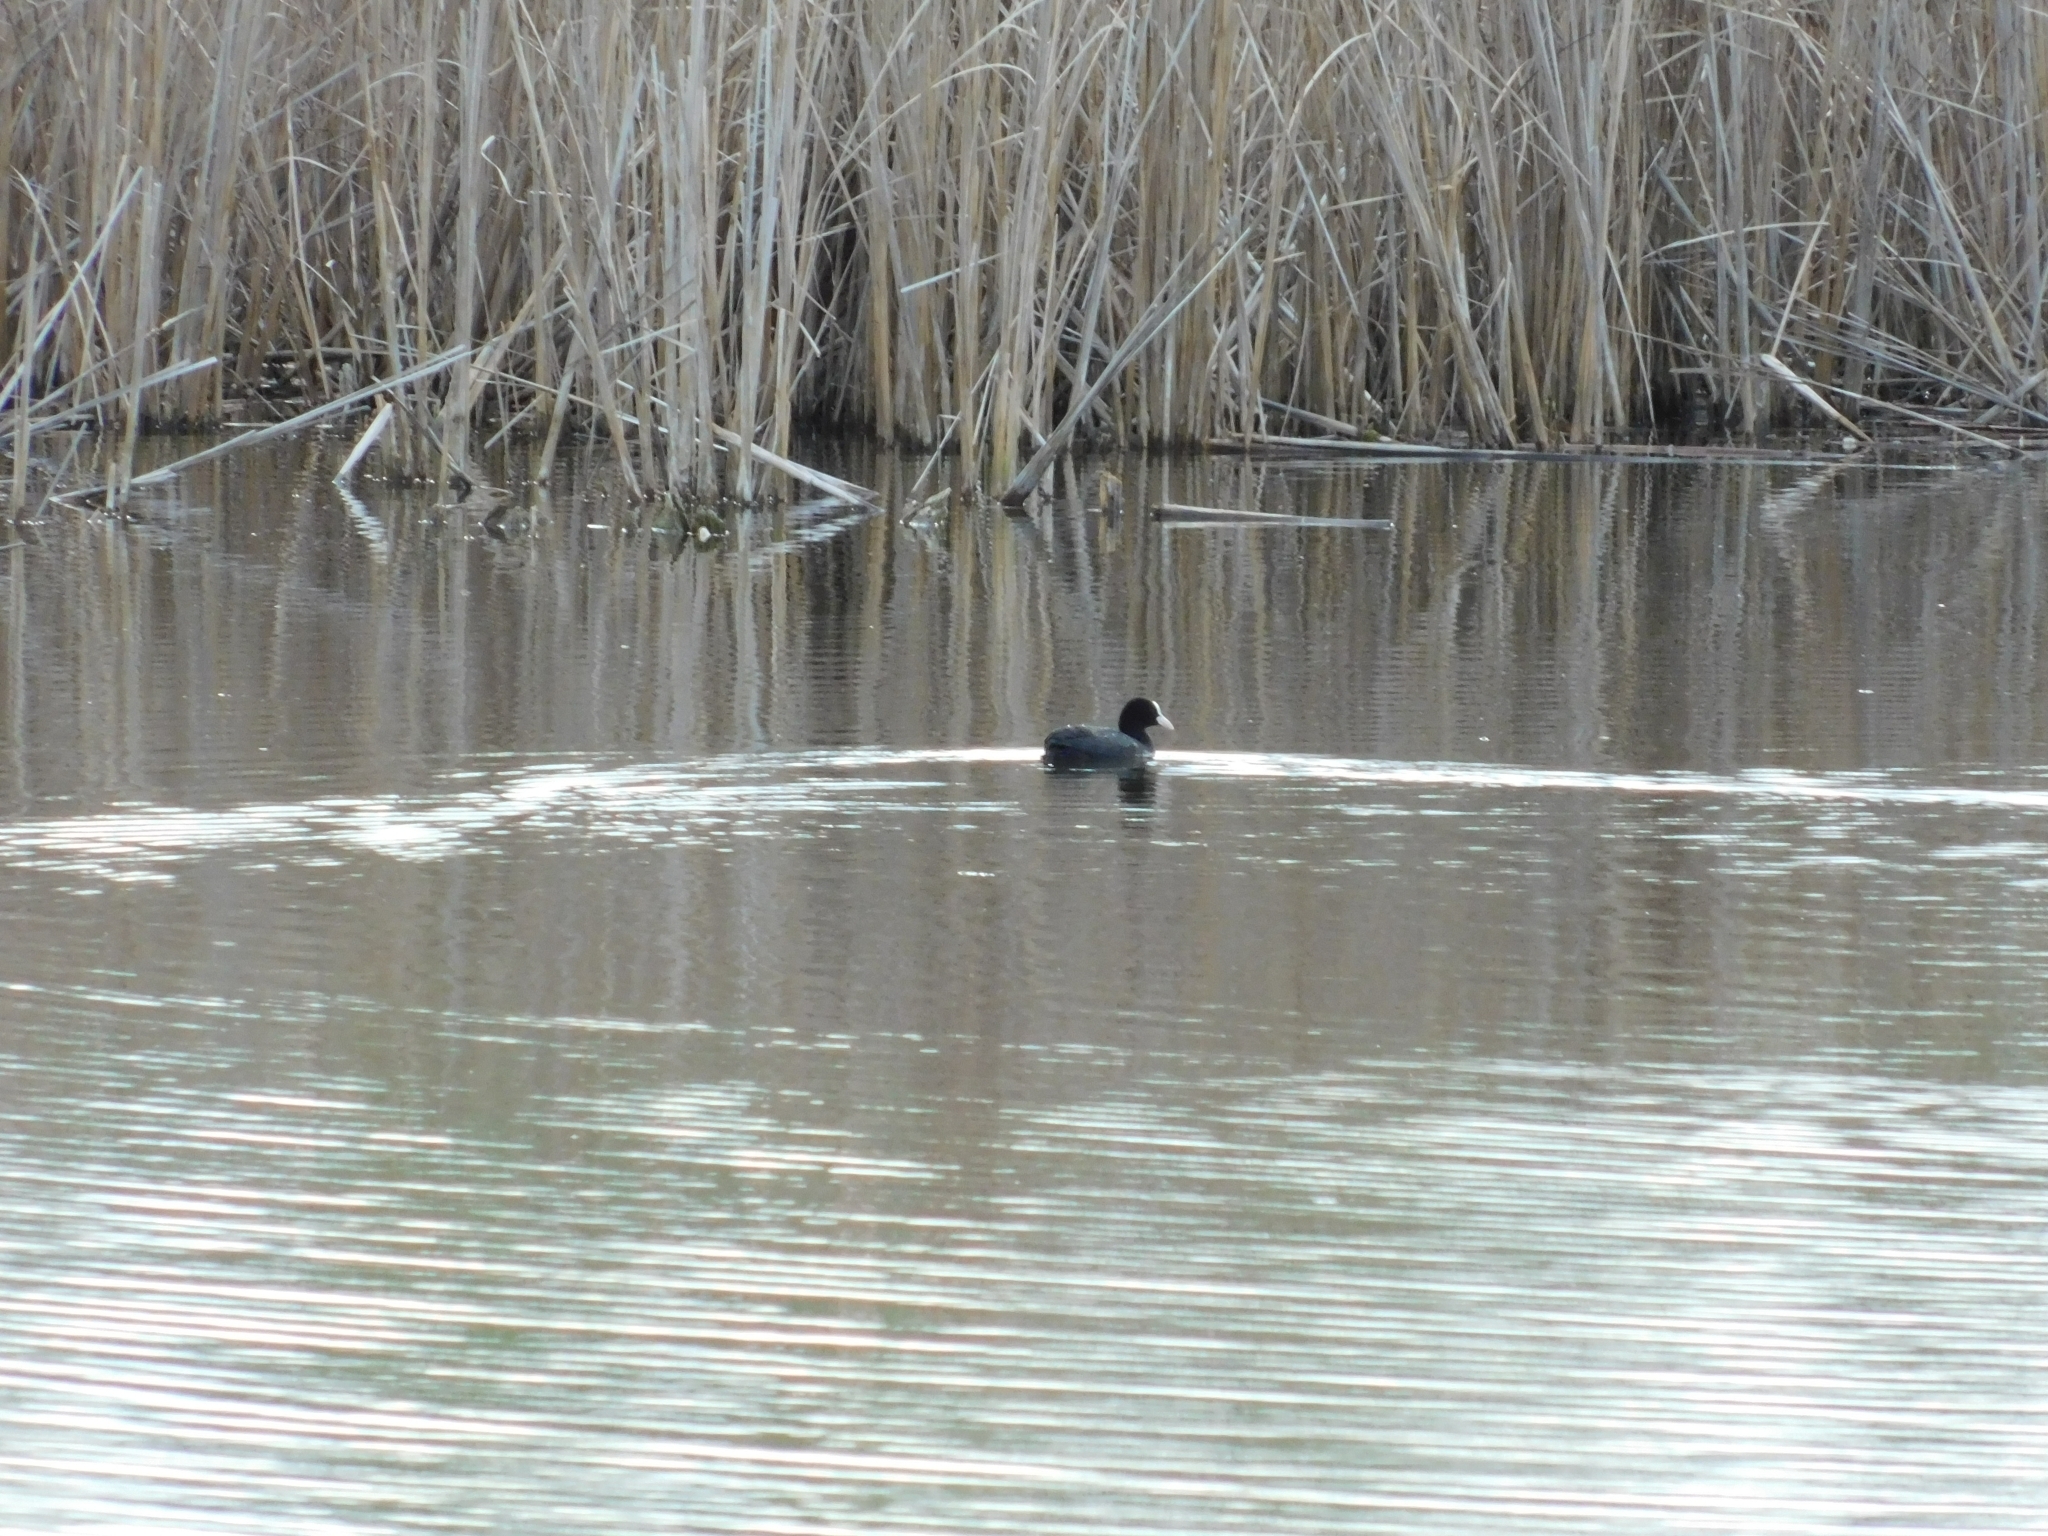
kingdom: Animalia
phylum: Chordata
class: Aves
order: Gruiformes
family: Rallidae
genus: Fulica
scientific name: Fulica atra
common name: Eurasian coot
